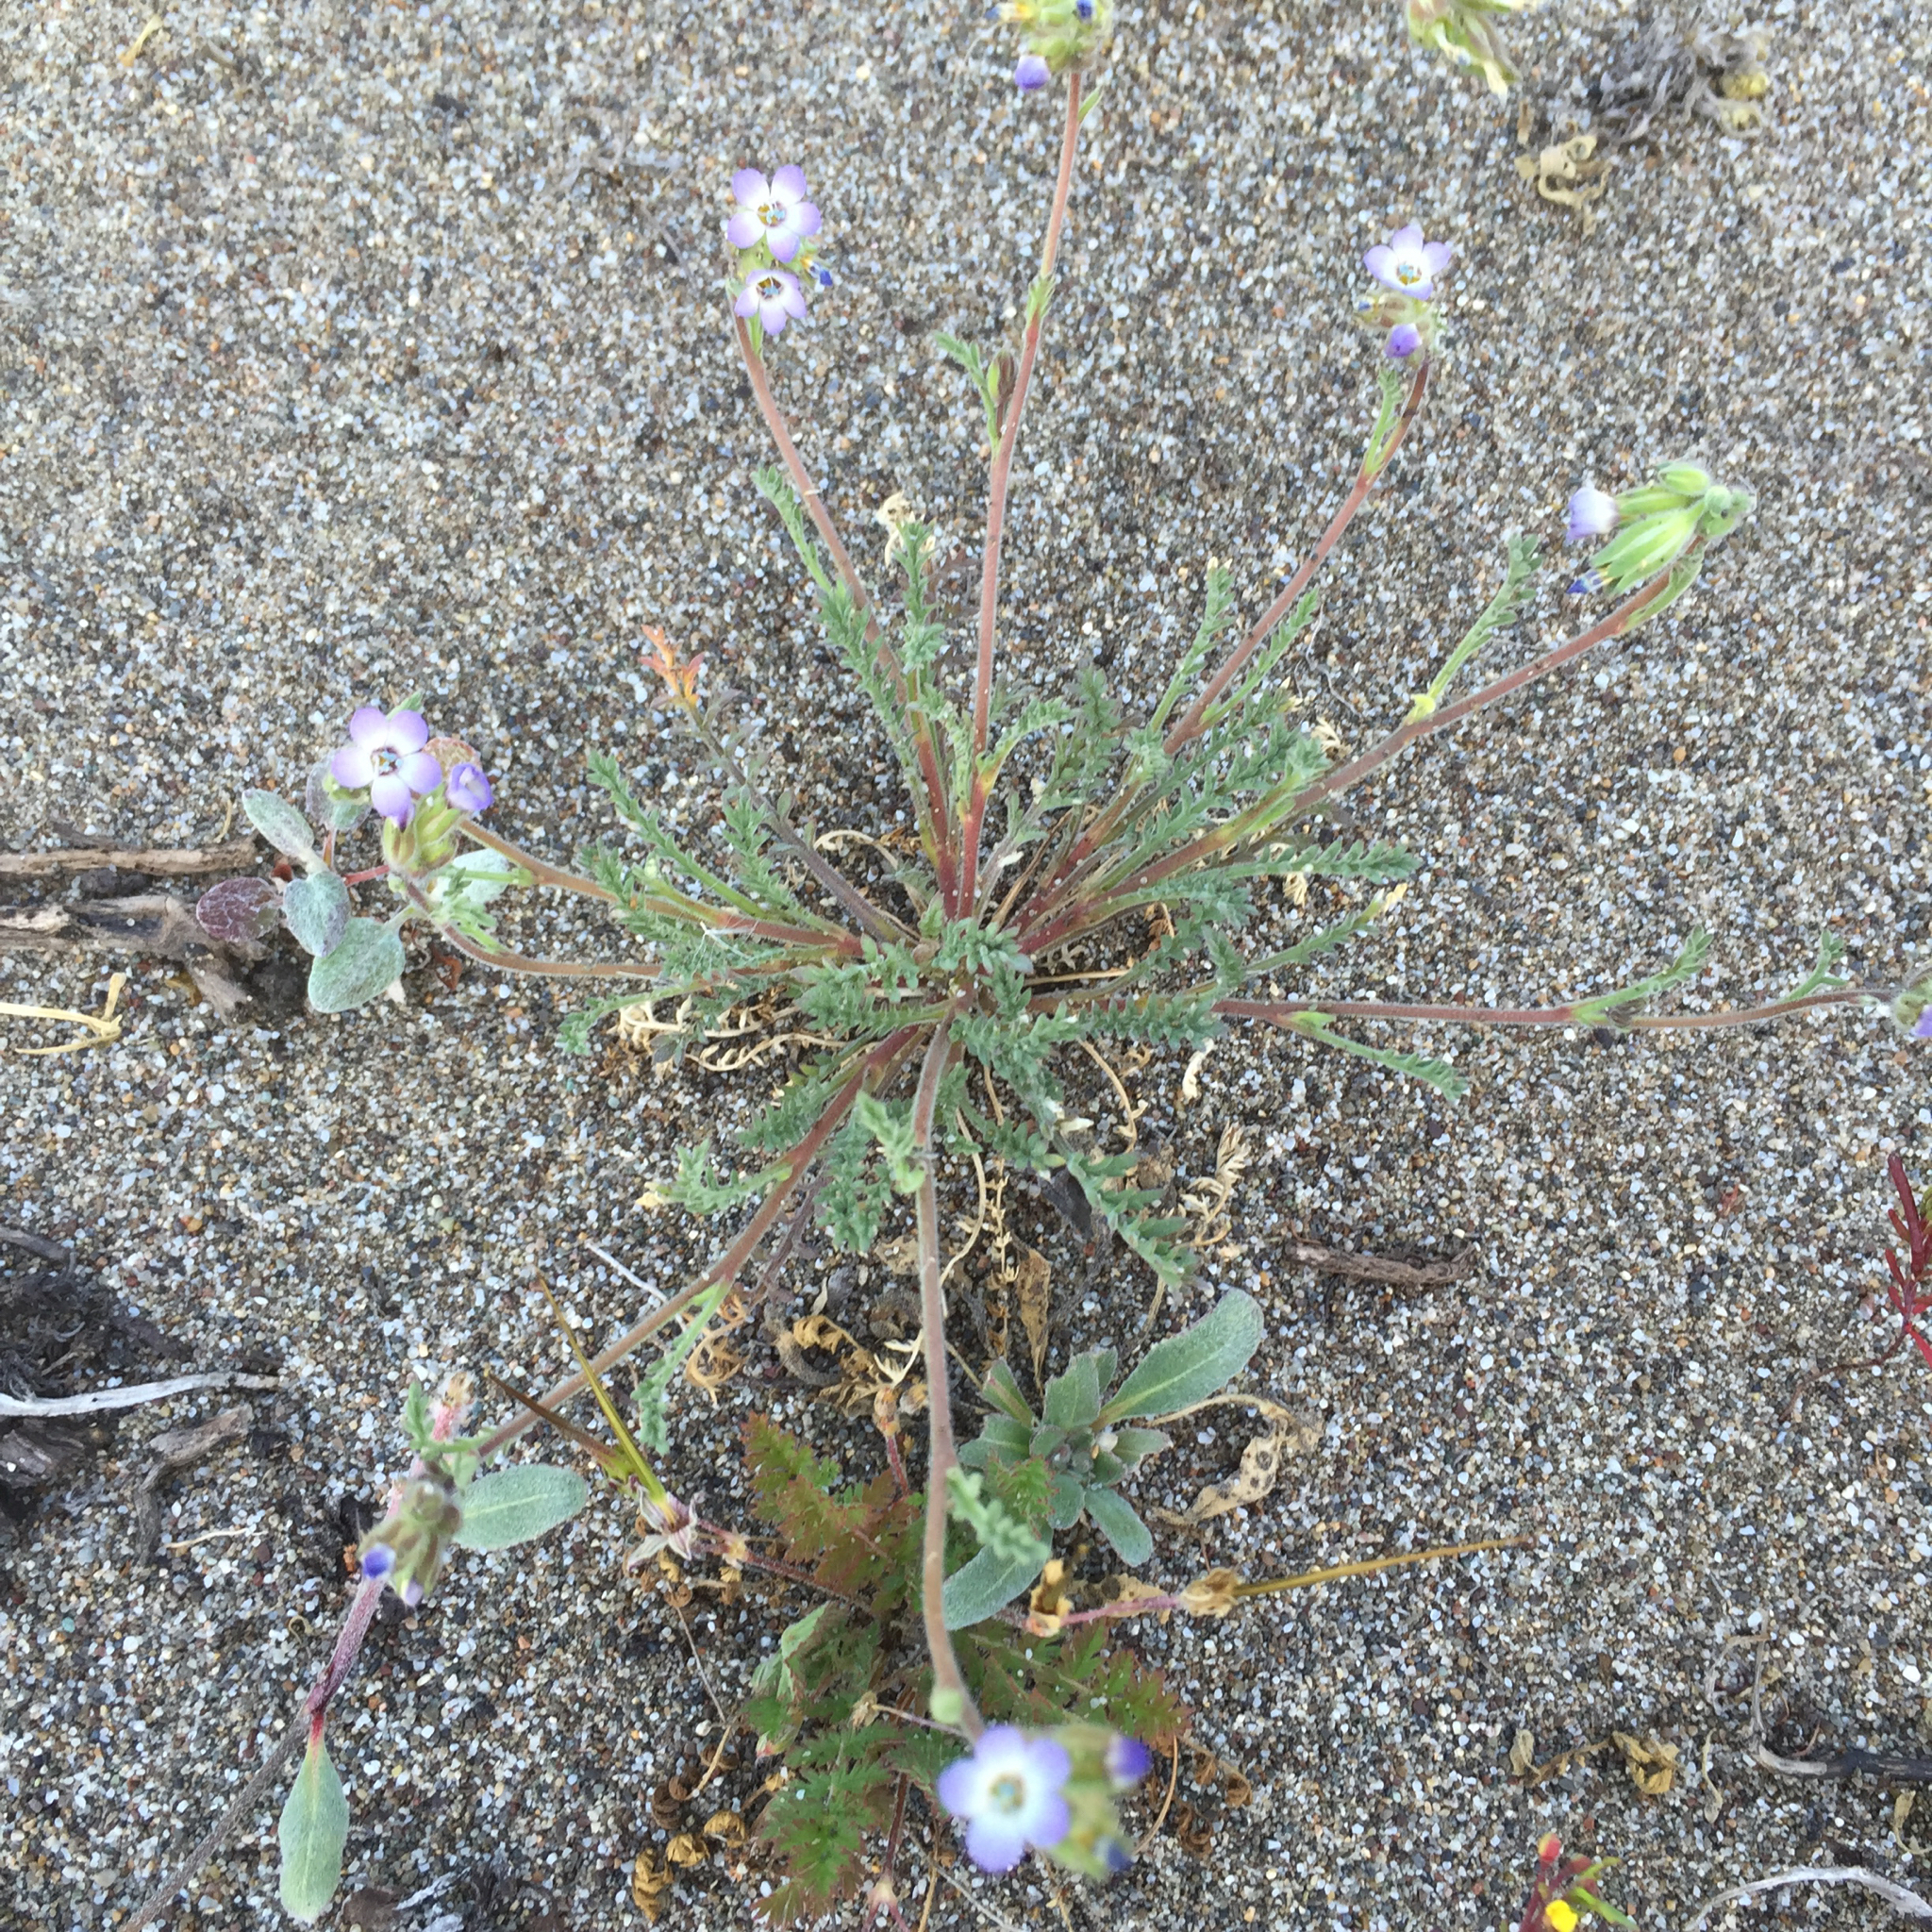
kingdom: Plantae
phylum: Tracheophyta
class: Magnoliopsida
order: Ericales
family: Polemoniaceae
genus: Gilia
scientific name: Gilia millefoliata
